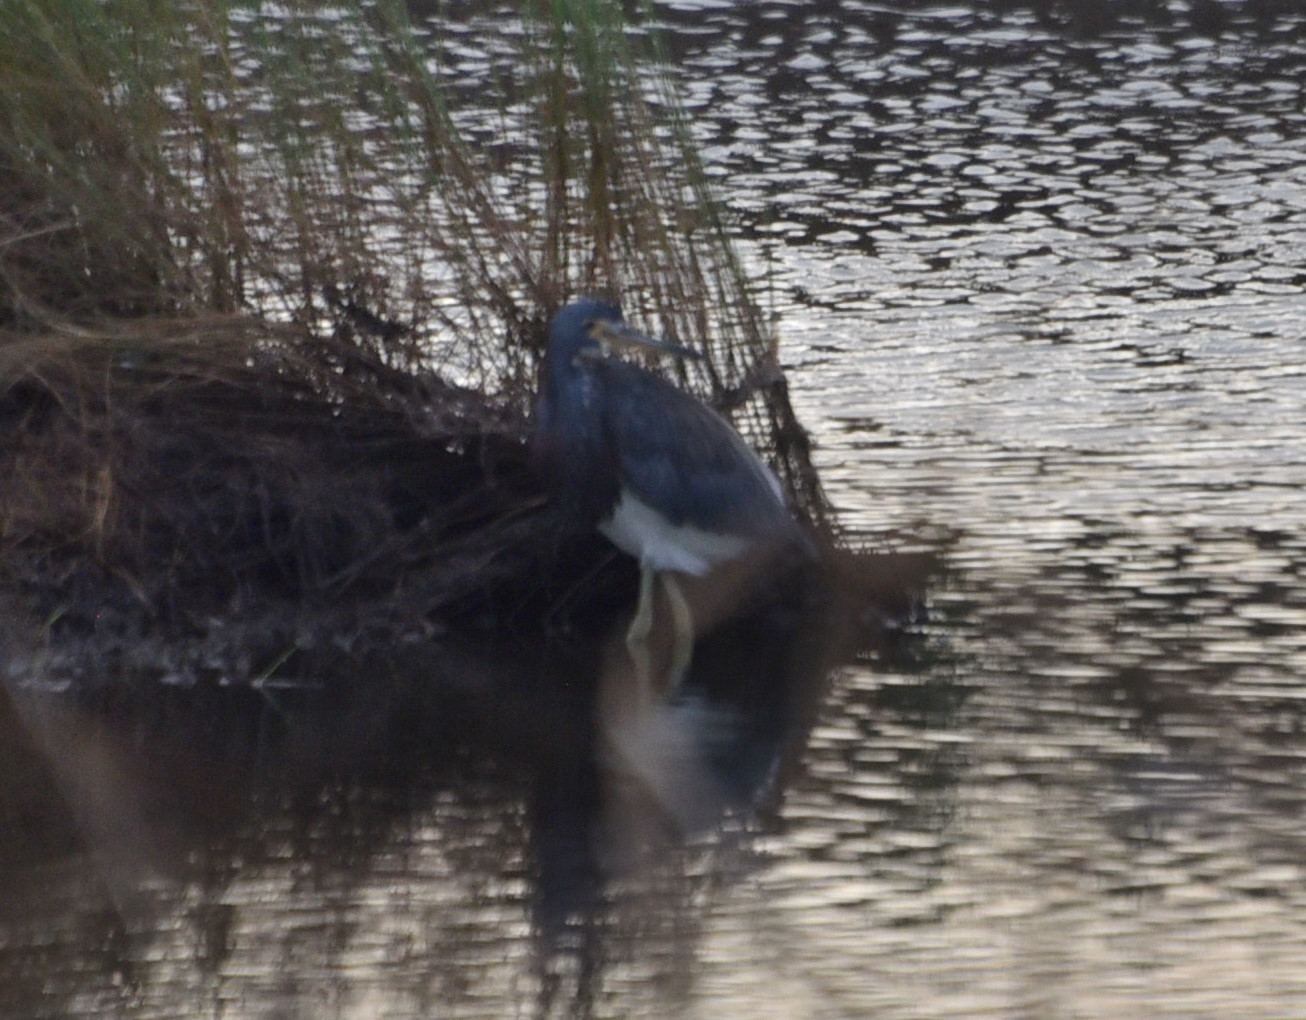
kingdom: Animalia
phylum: Chordata
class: Aves
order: Pelecaniformes
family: Ardeidae
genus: Egretta
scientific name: Egretta tricolor
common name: Tricolored heron
